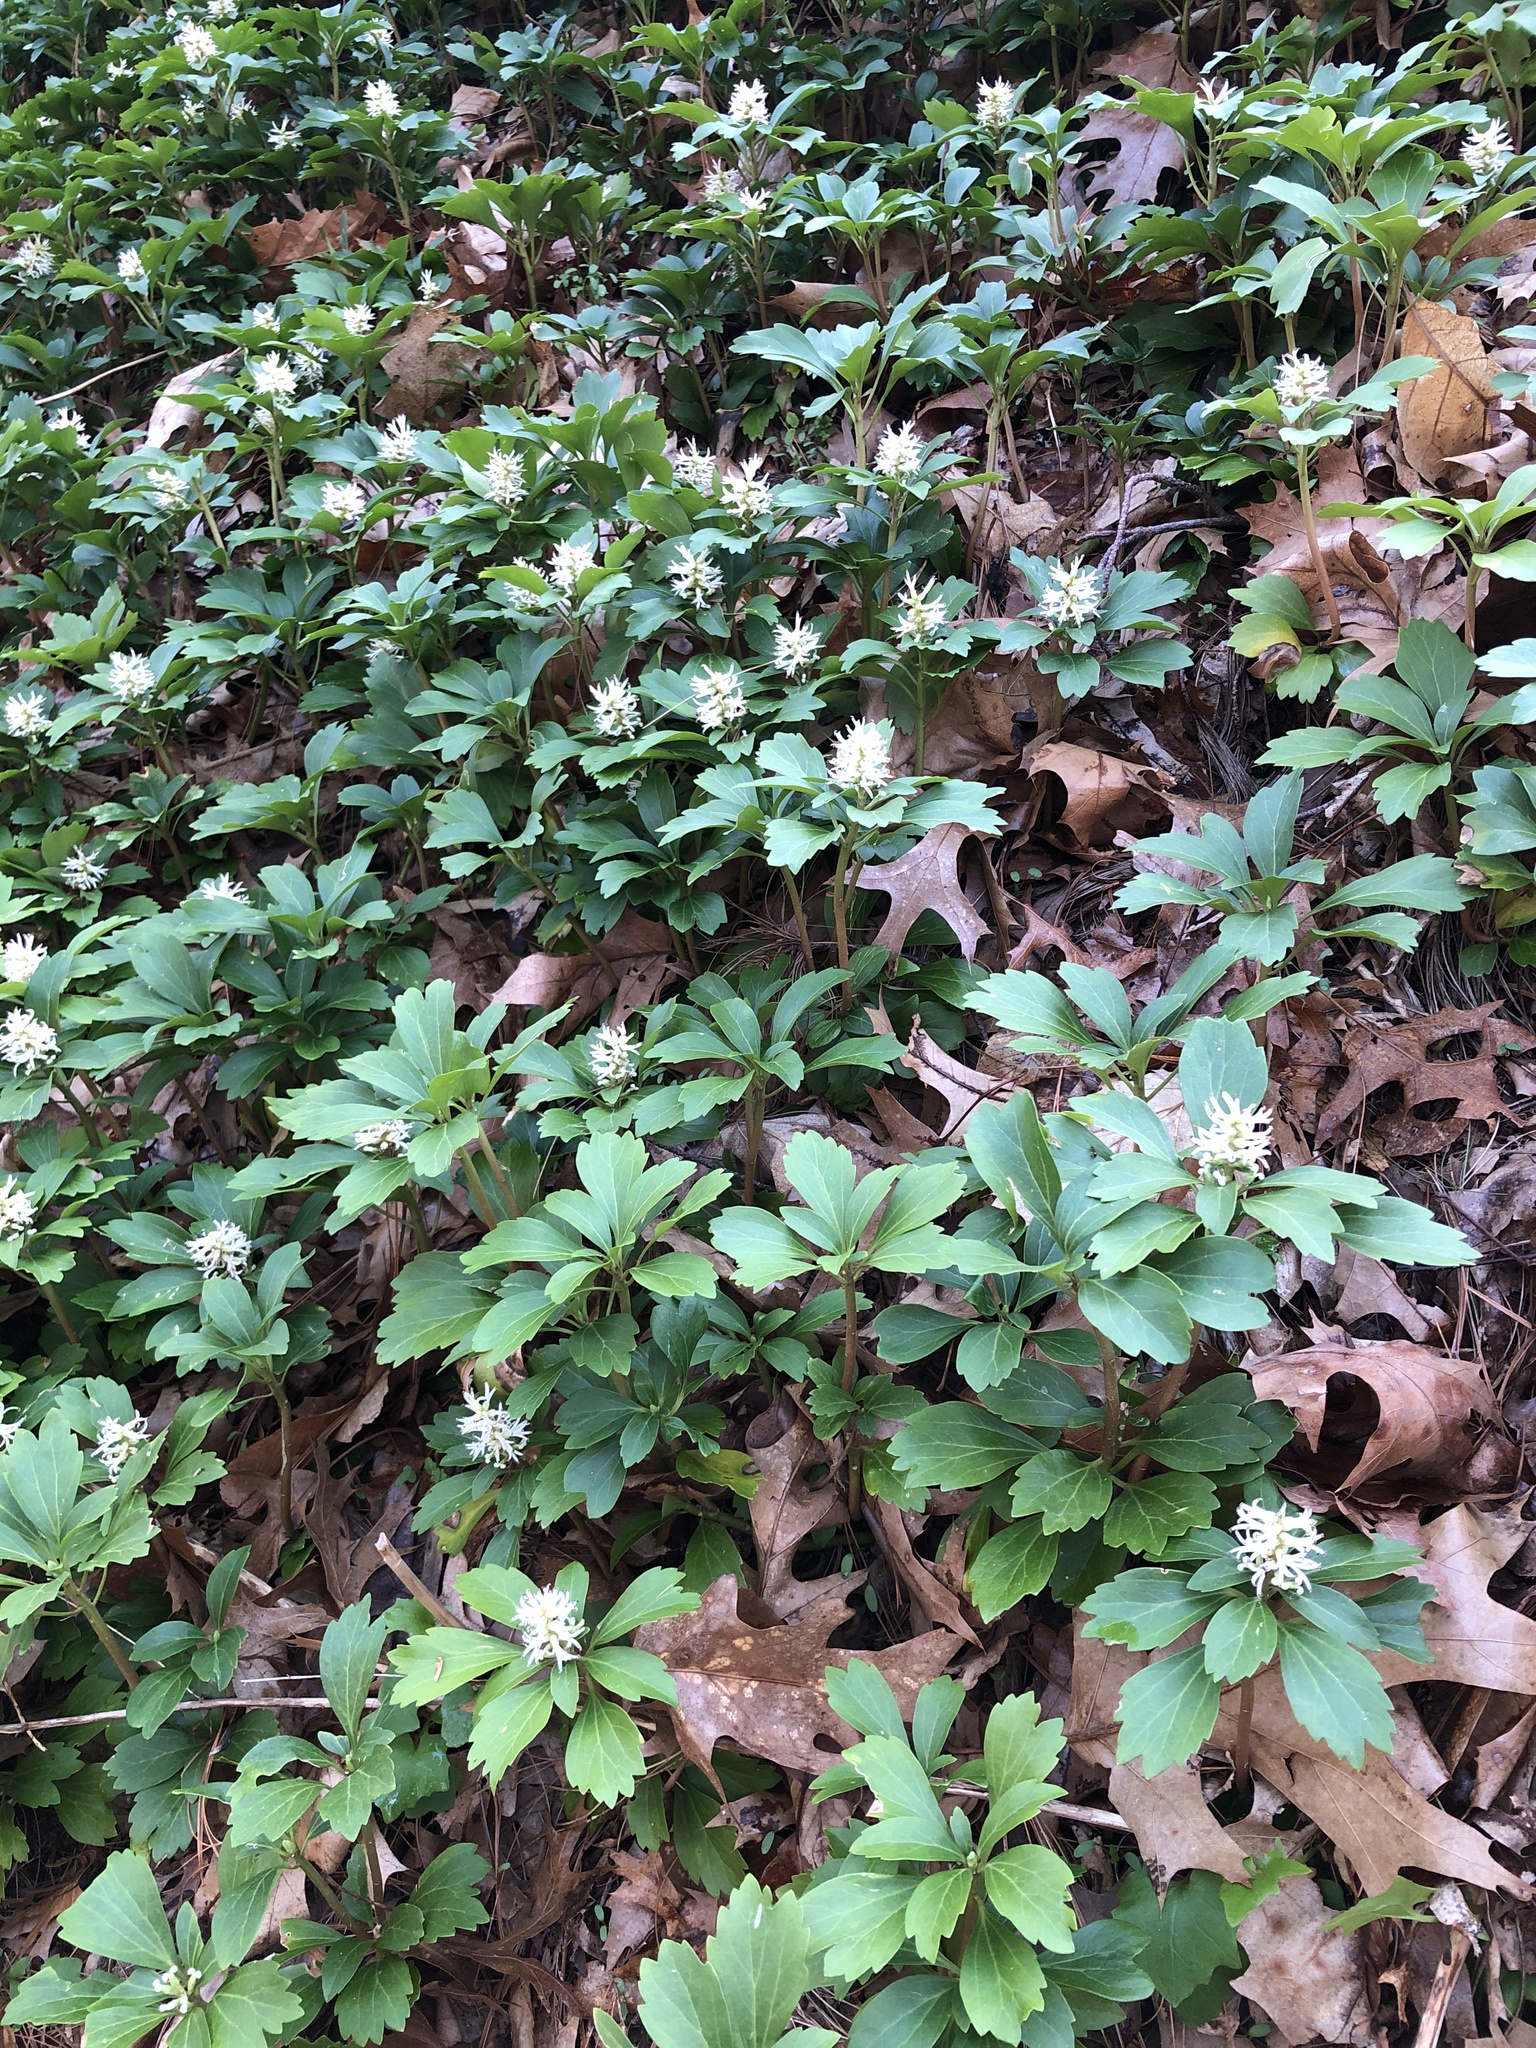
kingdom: Plantae
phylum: Tracheophyta
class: Magnoliopsida
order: Buxales
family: Buxaceae
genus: Pachysandra
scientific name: Pachysandra terminalis
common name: Japanese pachysandra
